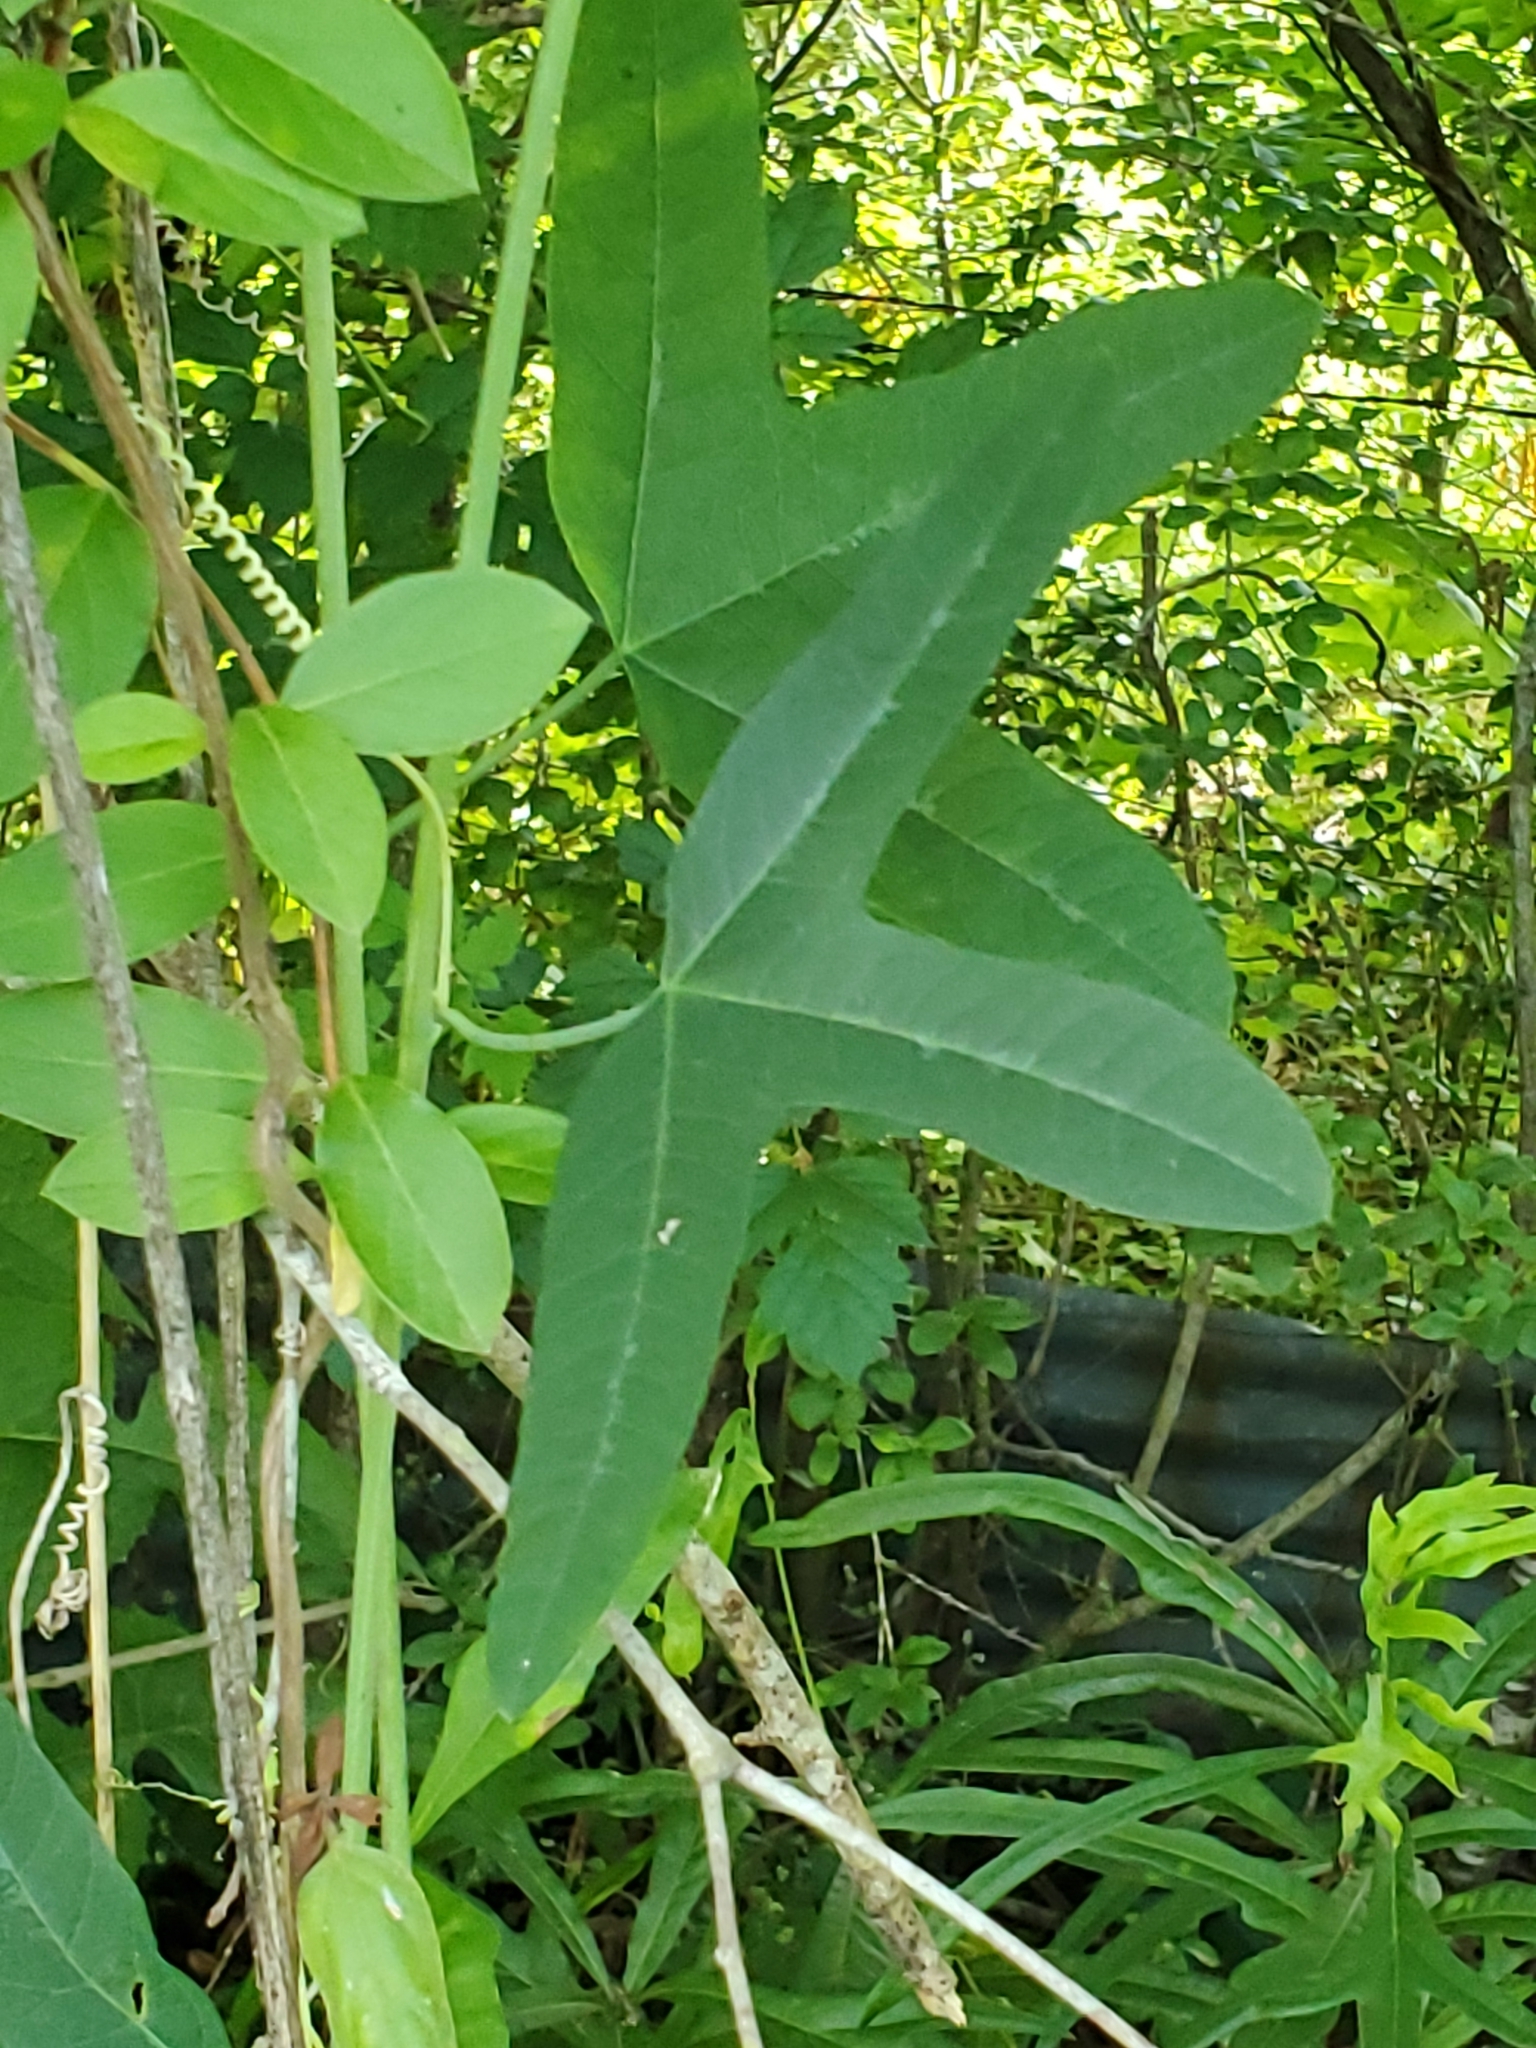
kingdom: Plantae
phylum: Tracheophyta
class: Magnoliopsida
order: Malpighiales
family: Passifloraceae
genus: Passiflora
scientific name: Passiflora lutea
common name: Yellow passionflower
